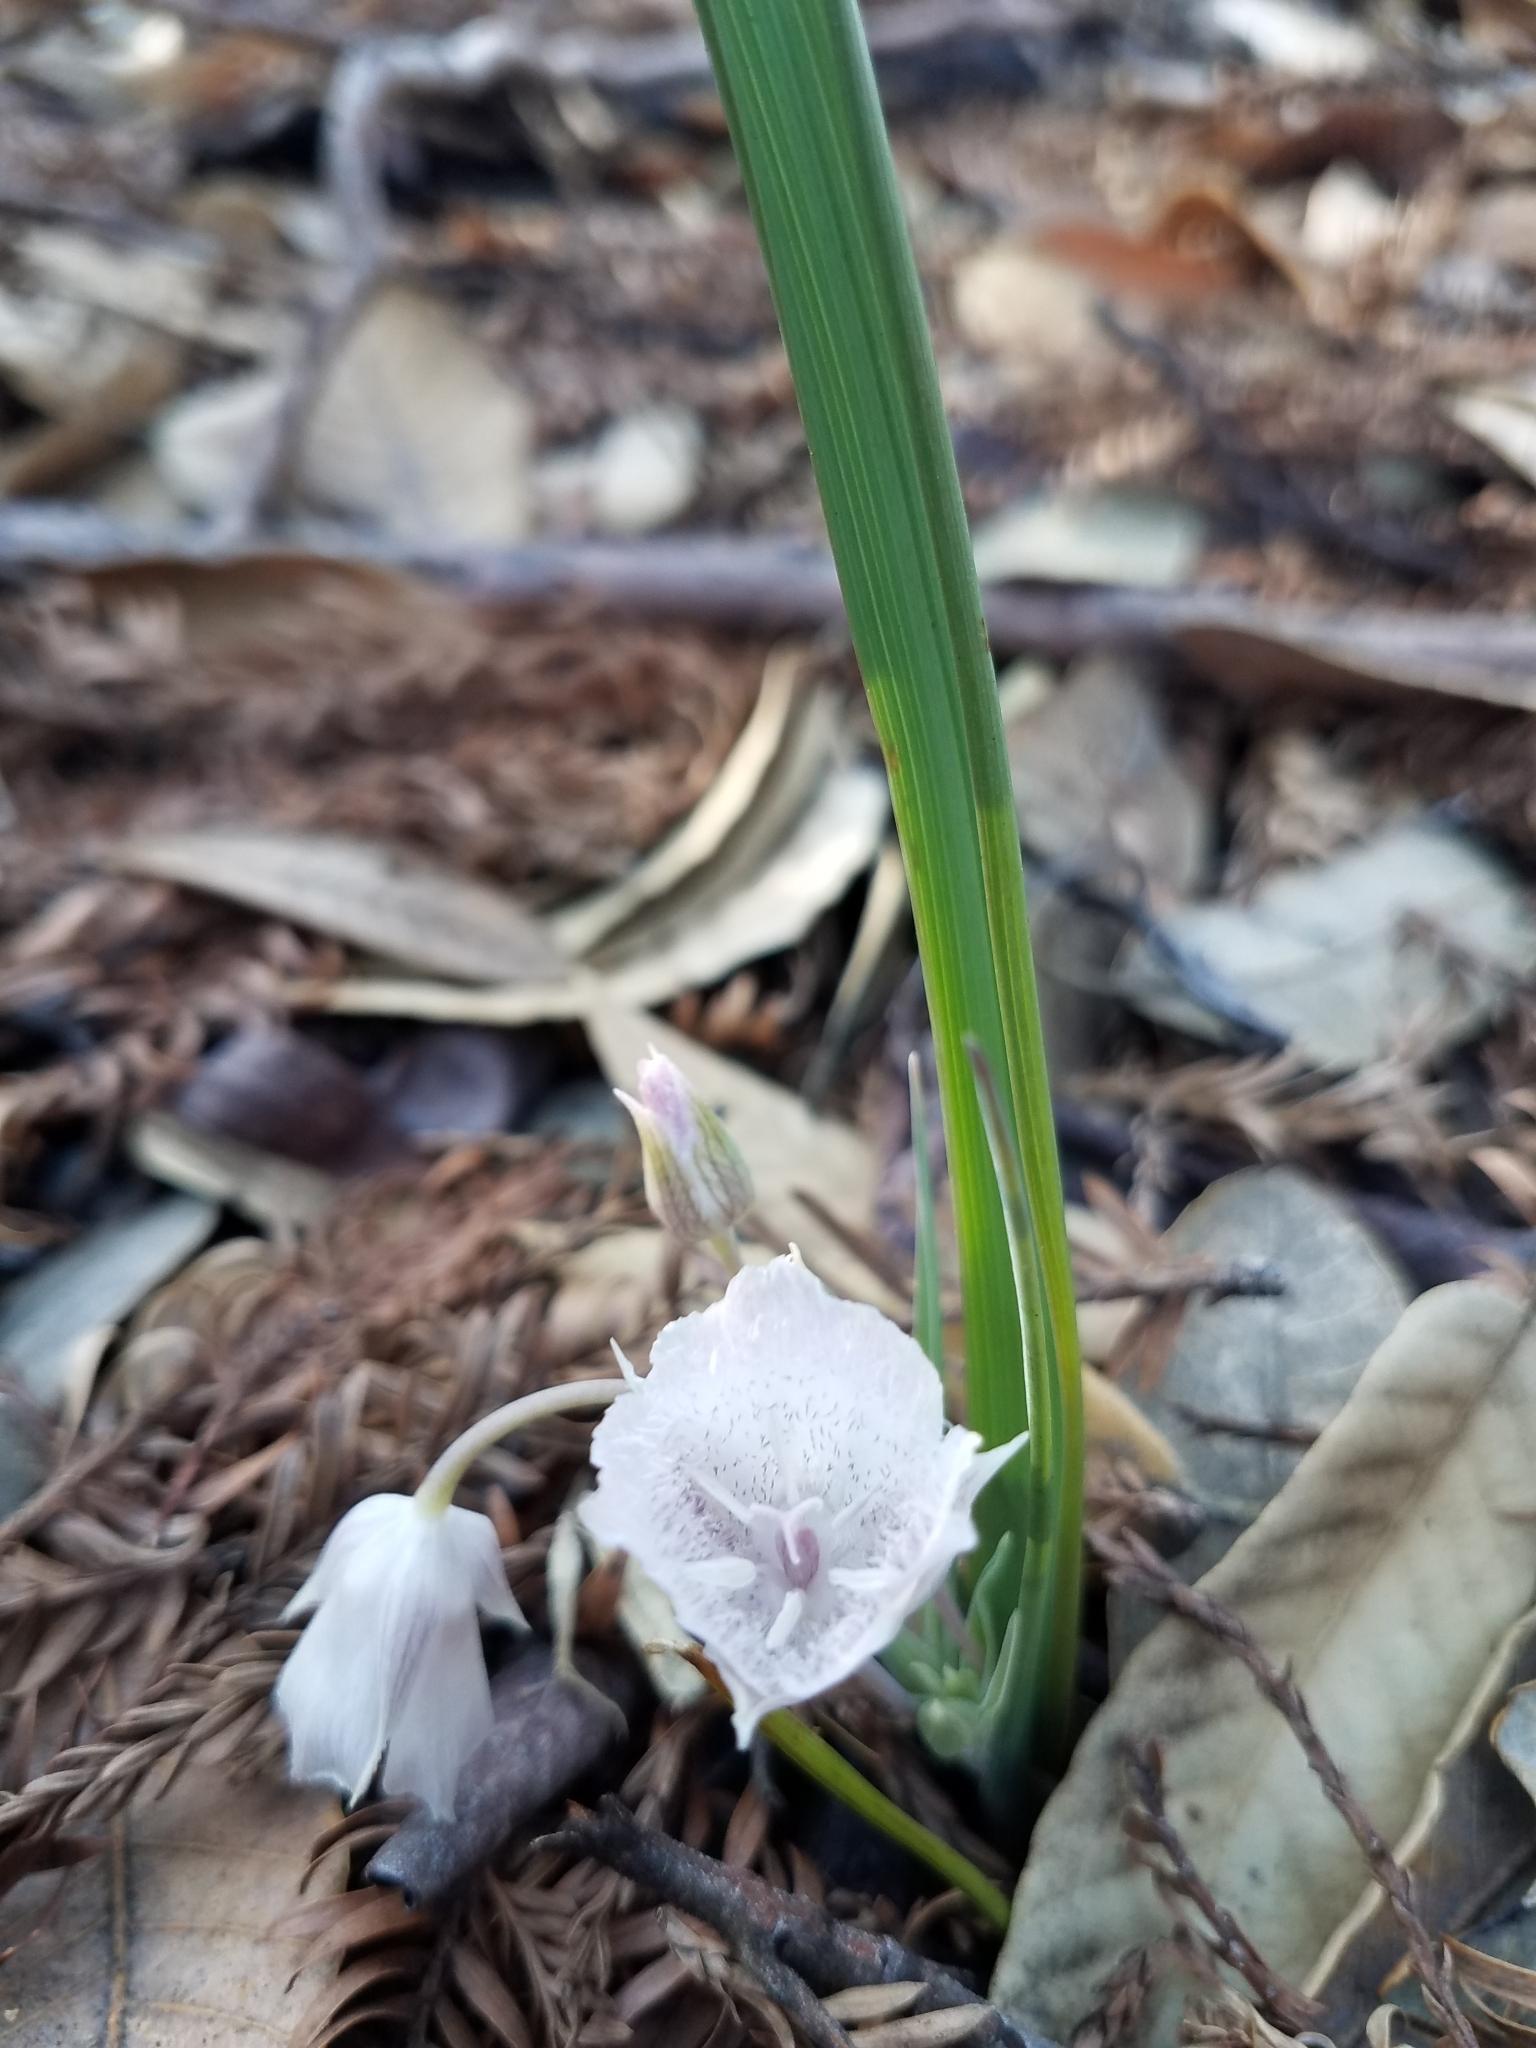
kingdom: Plantae
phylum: Tracheophyta
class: Liliopsida
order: Liliales
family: Liliaceae
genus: Calochortus
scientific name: Calochortus tolmiei
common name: Pussy-ears
